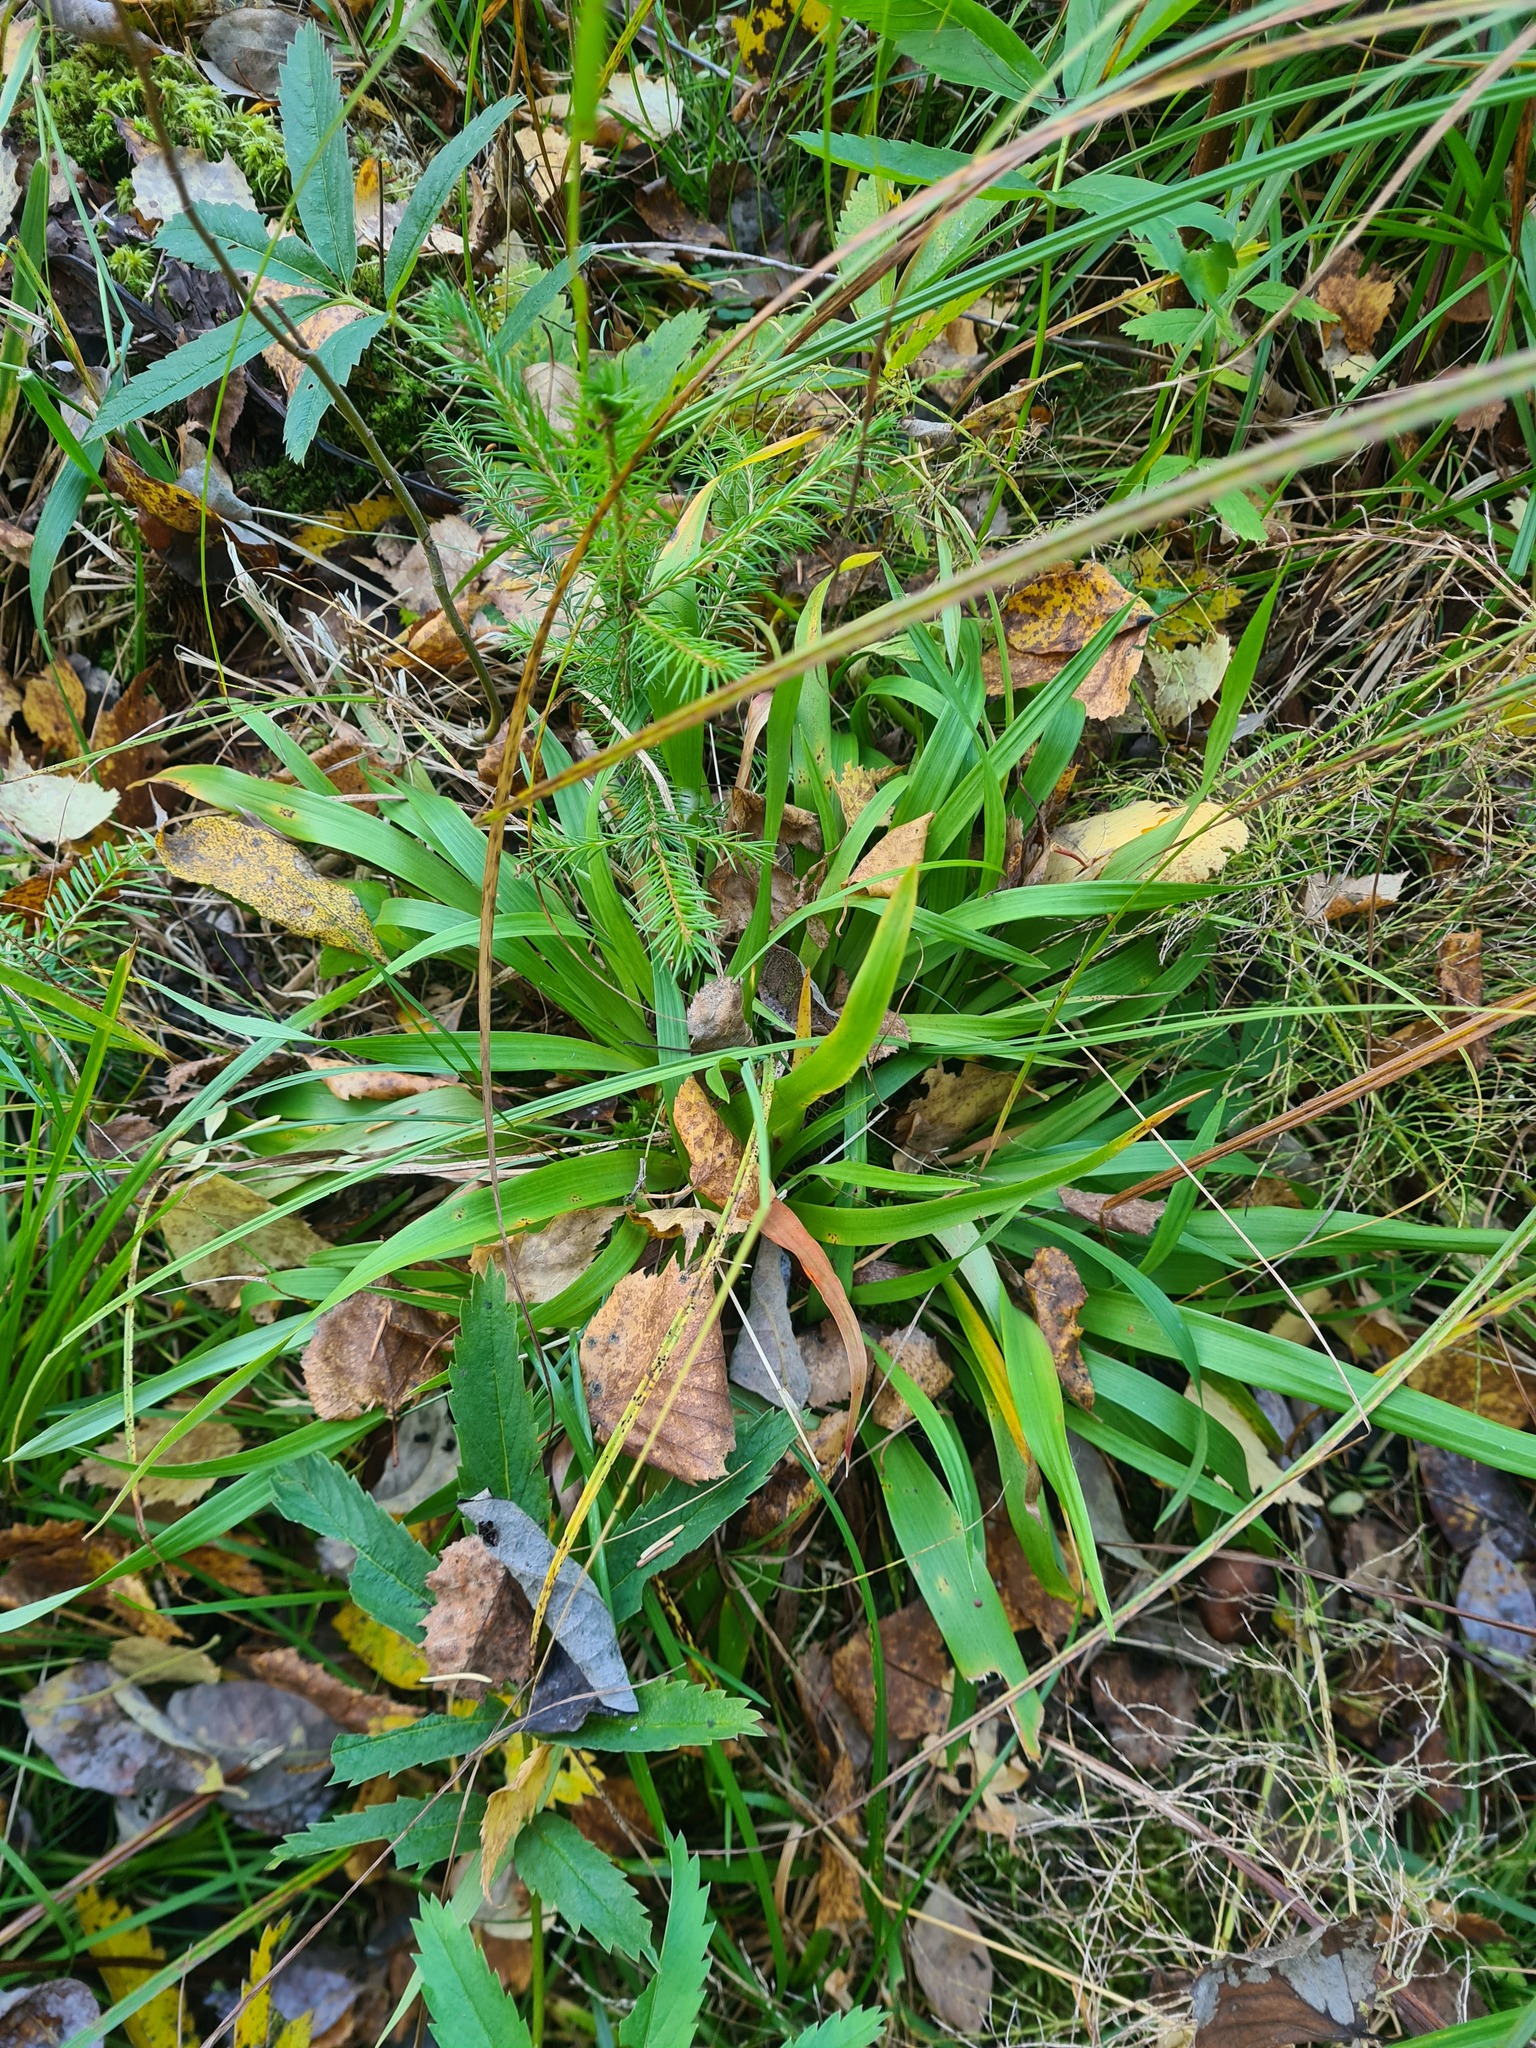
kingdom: Plantae
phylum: Tracheophyta
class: Liliopsida
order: Poales
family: Juncaceae
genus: Luzula
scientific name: Luzula pilosa
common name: Hairy wood-rush
